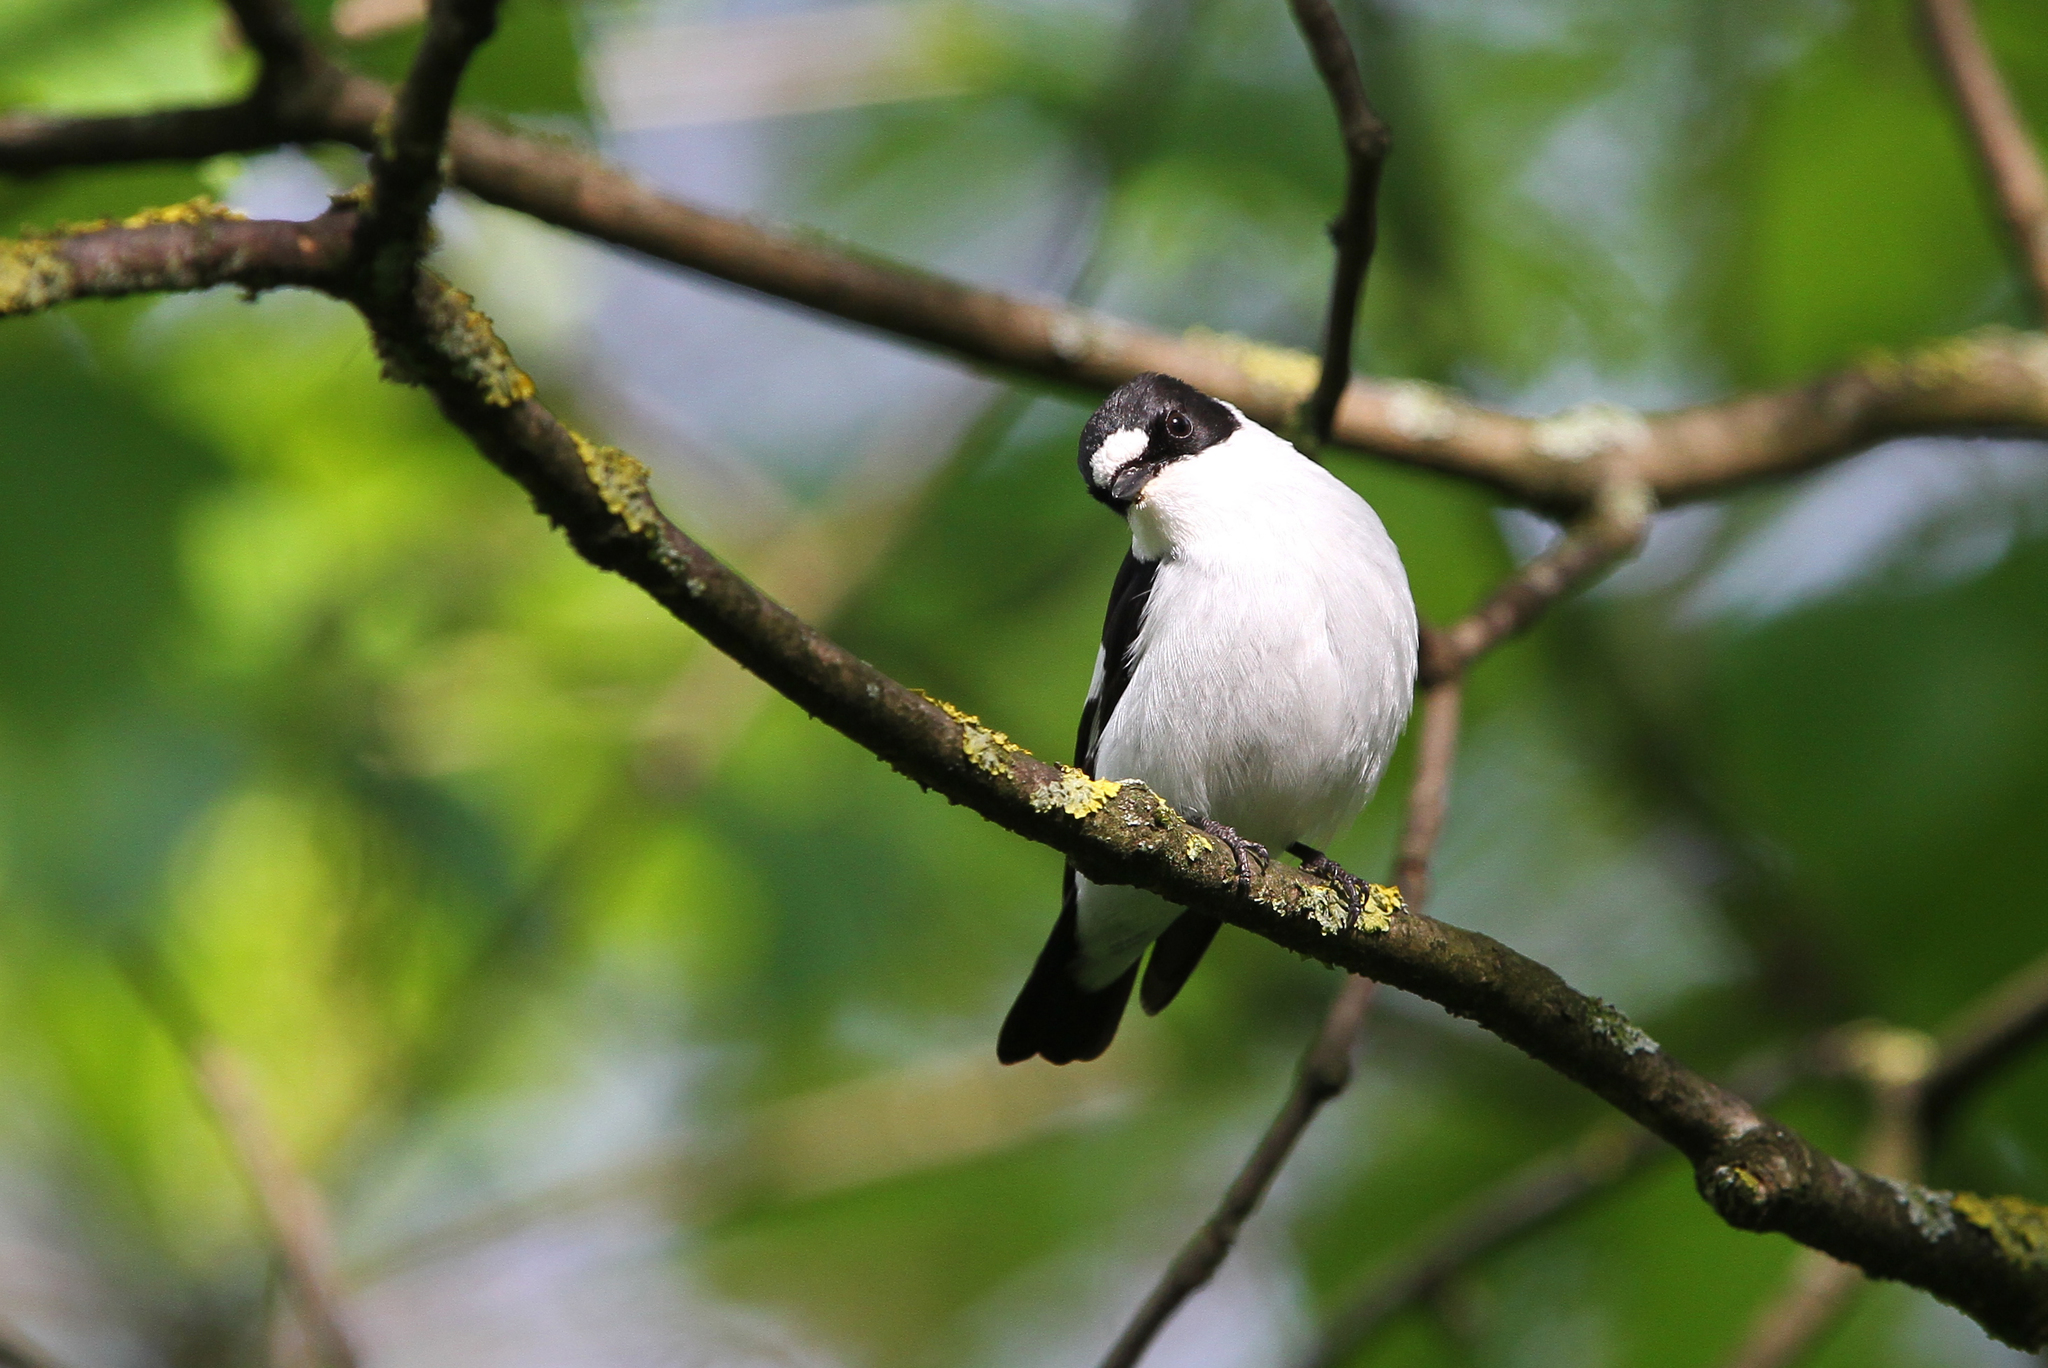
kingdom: Animalia
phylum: Chordata
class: Aves
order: Passeriformes
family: Muscicapidae
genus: Ficedula
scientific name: Ficedula albicollis
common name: Collared flycatcher
